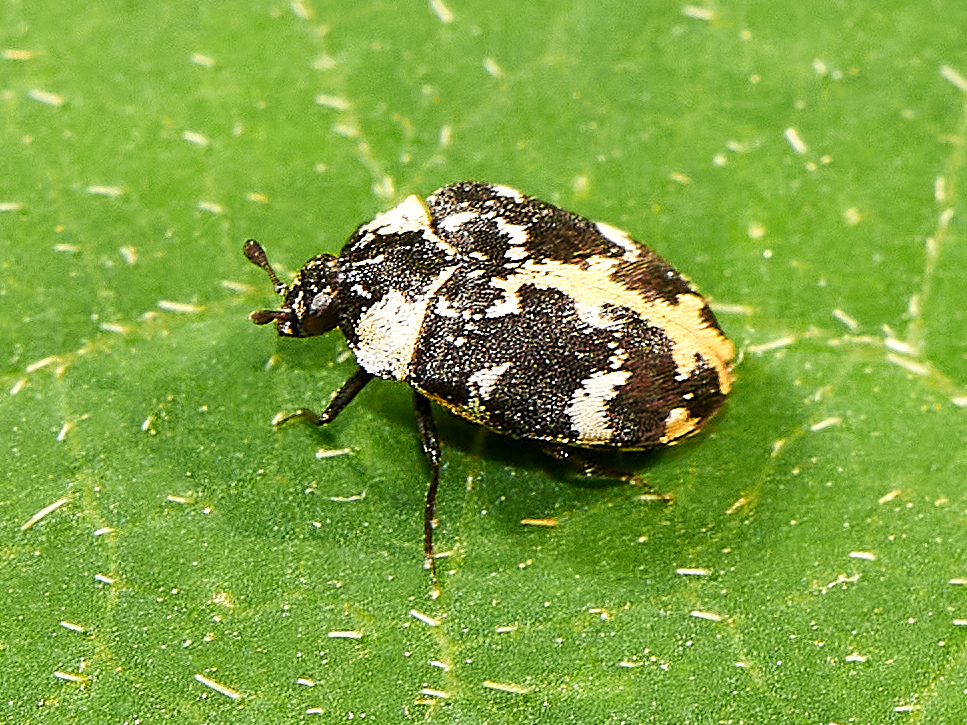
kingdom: Animalia
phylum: Arthropoda
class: Insecta
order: Coleoptera
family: Dermestidae
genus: Anthrenus
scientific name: Anthrenus scrophulariae
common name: Buffalo carpet beetle
